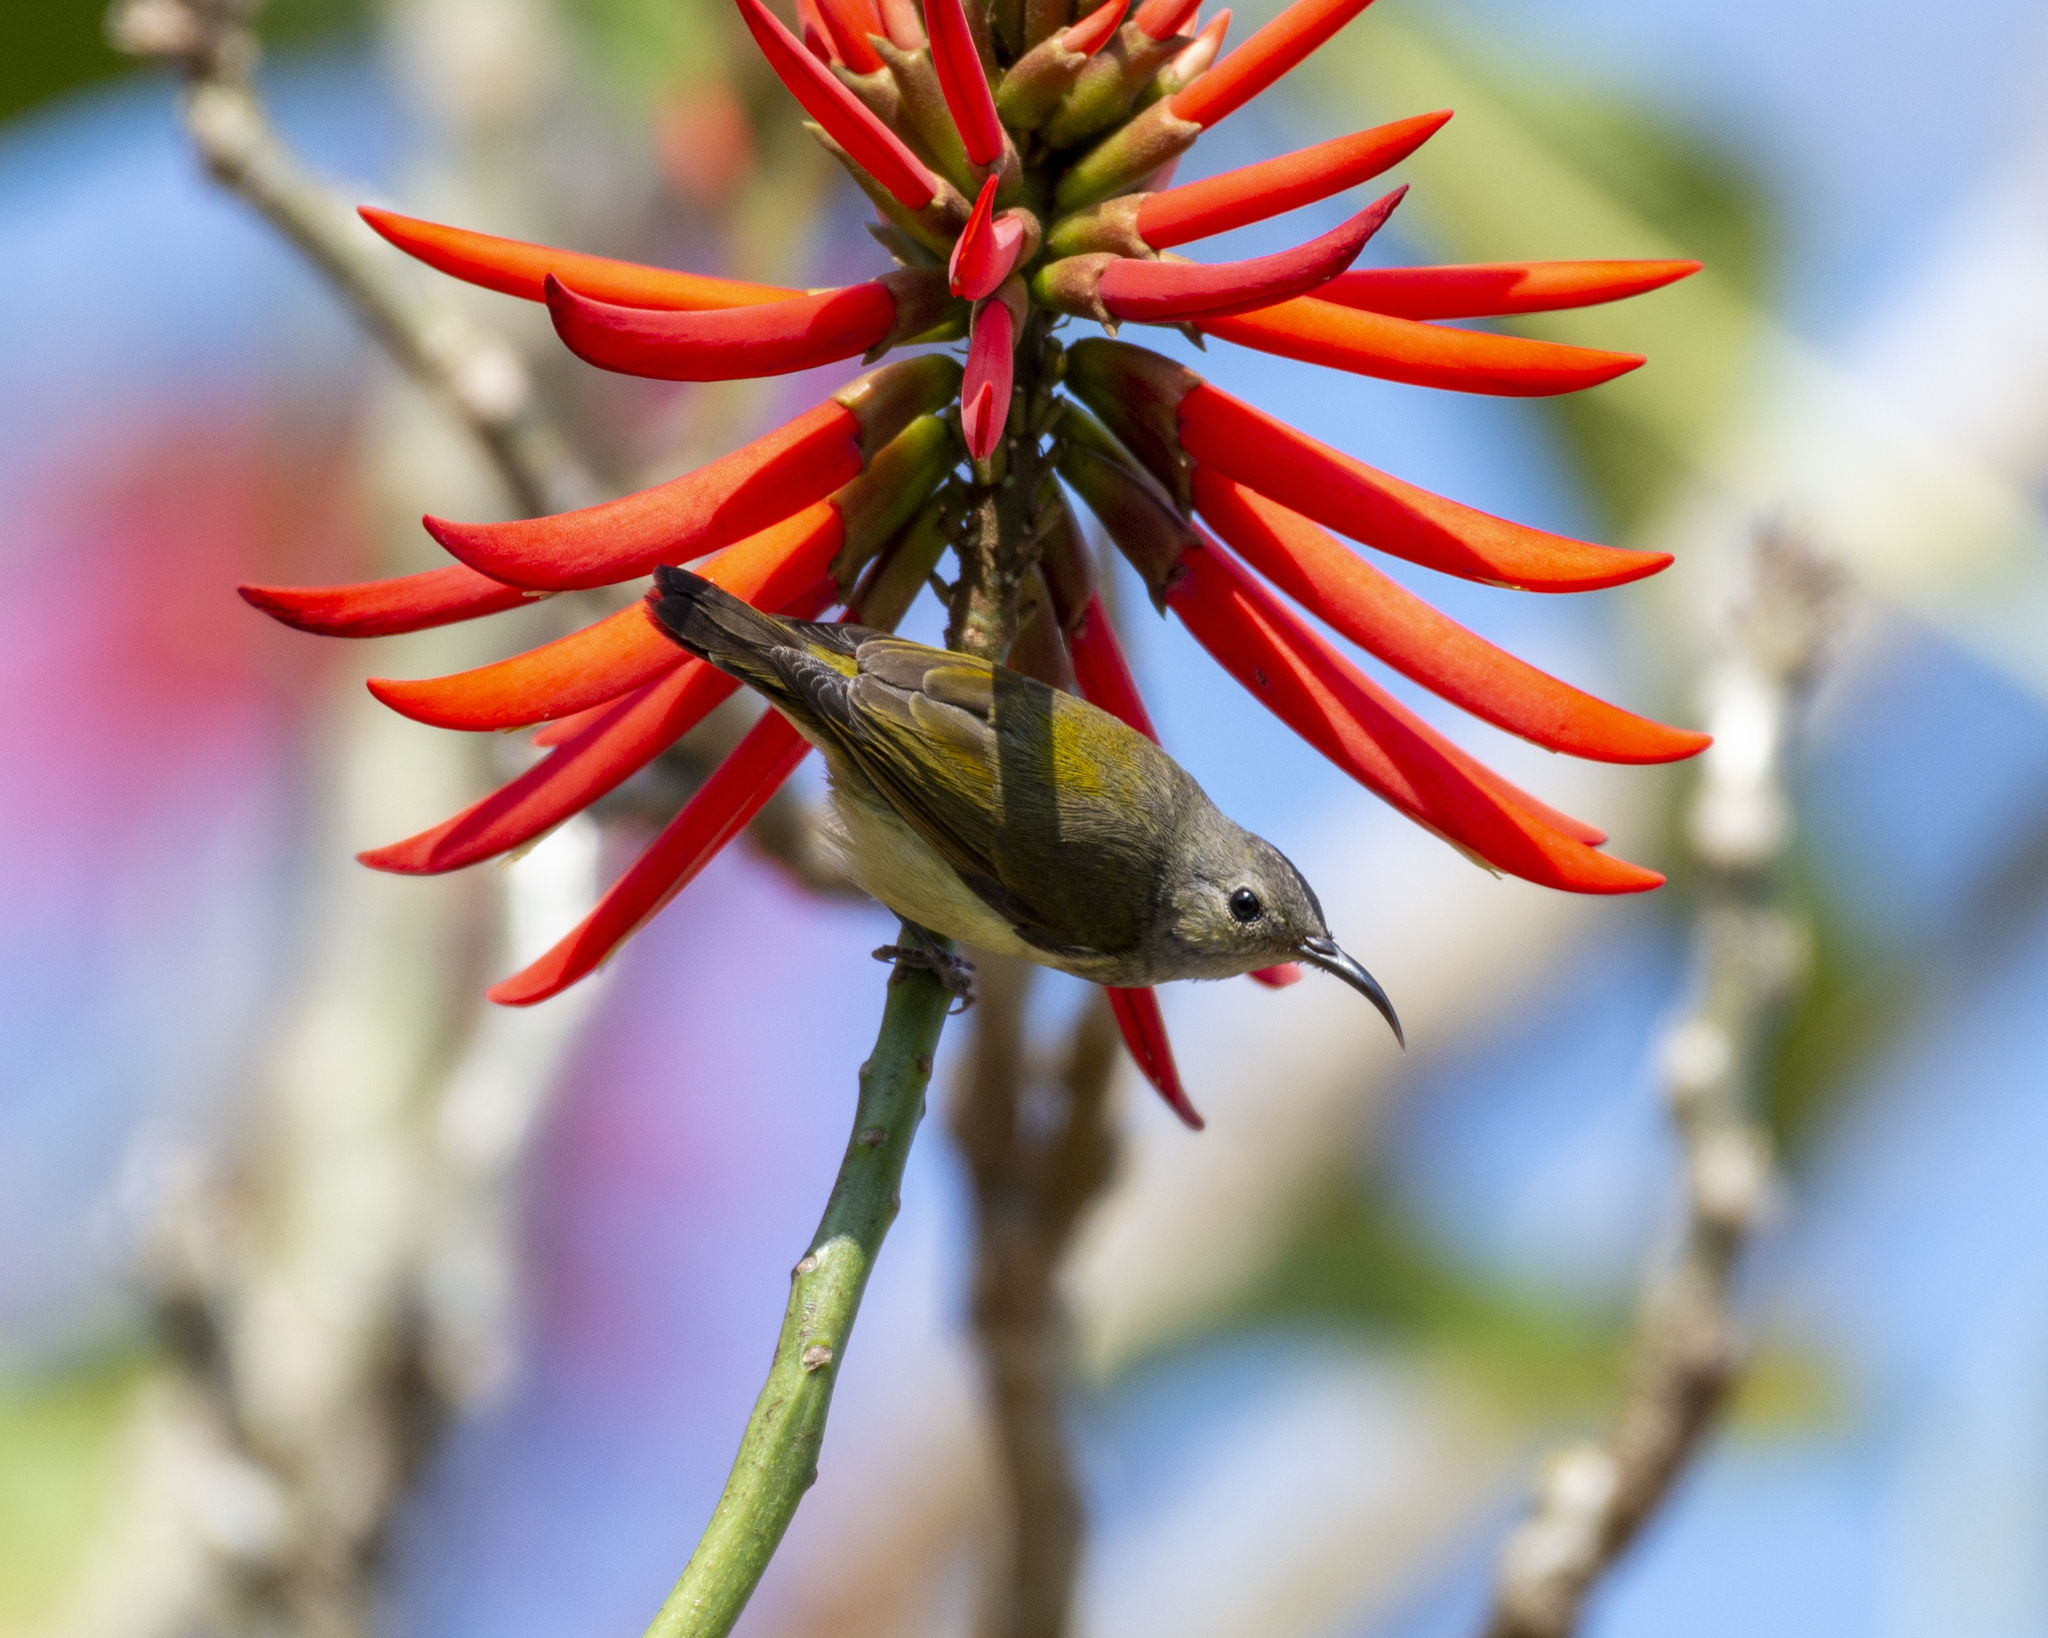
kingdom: Animalia
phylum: Chordata
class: Aves
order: Passeriformes
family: Nectariniidae
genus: Aethopyga
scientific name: Aethopyga christinae
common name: Fork-tailed sunbird
